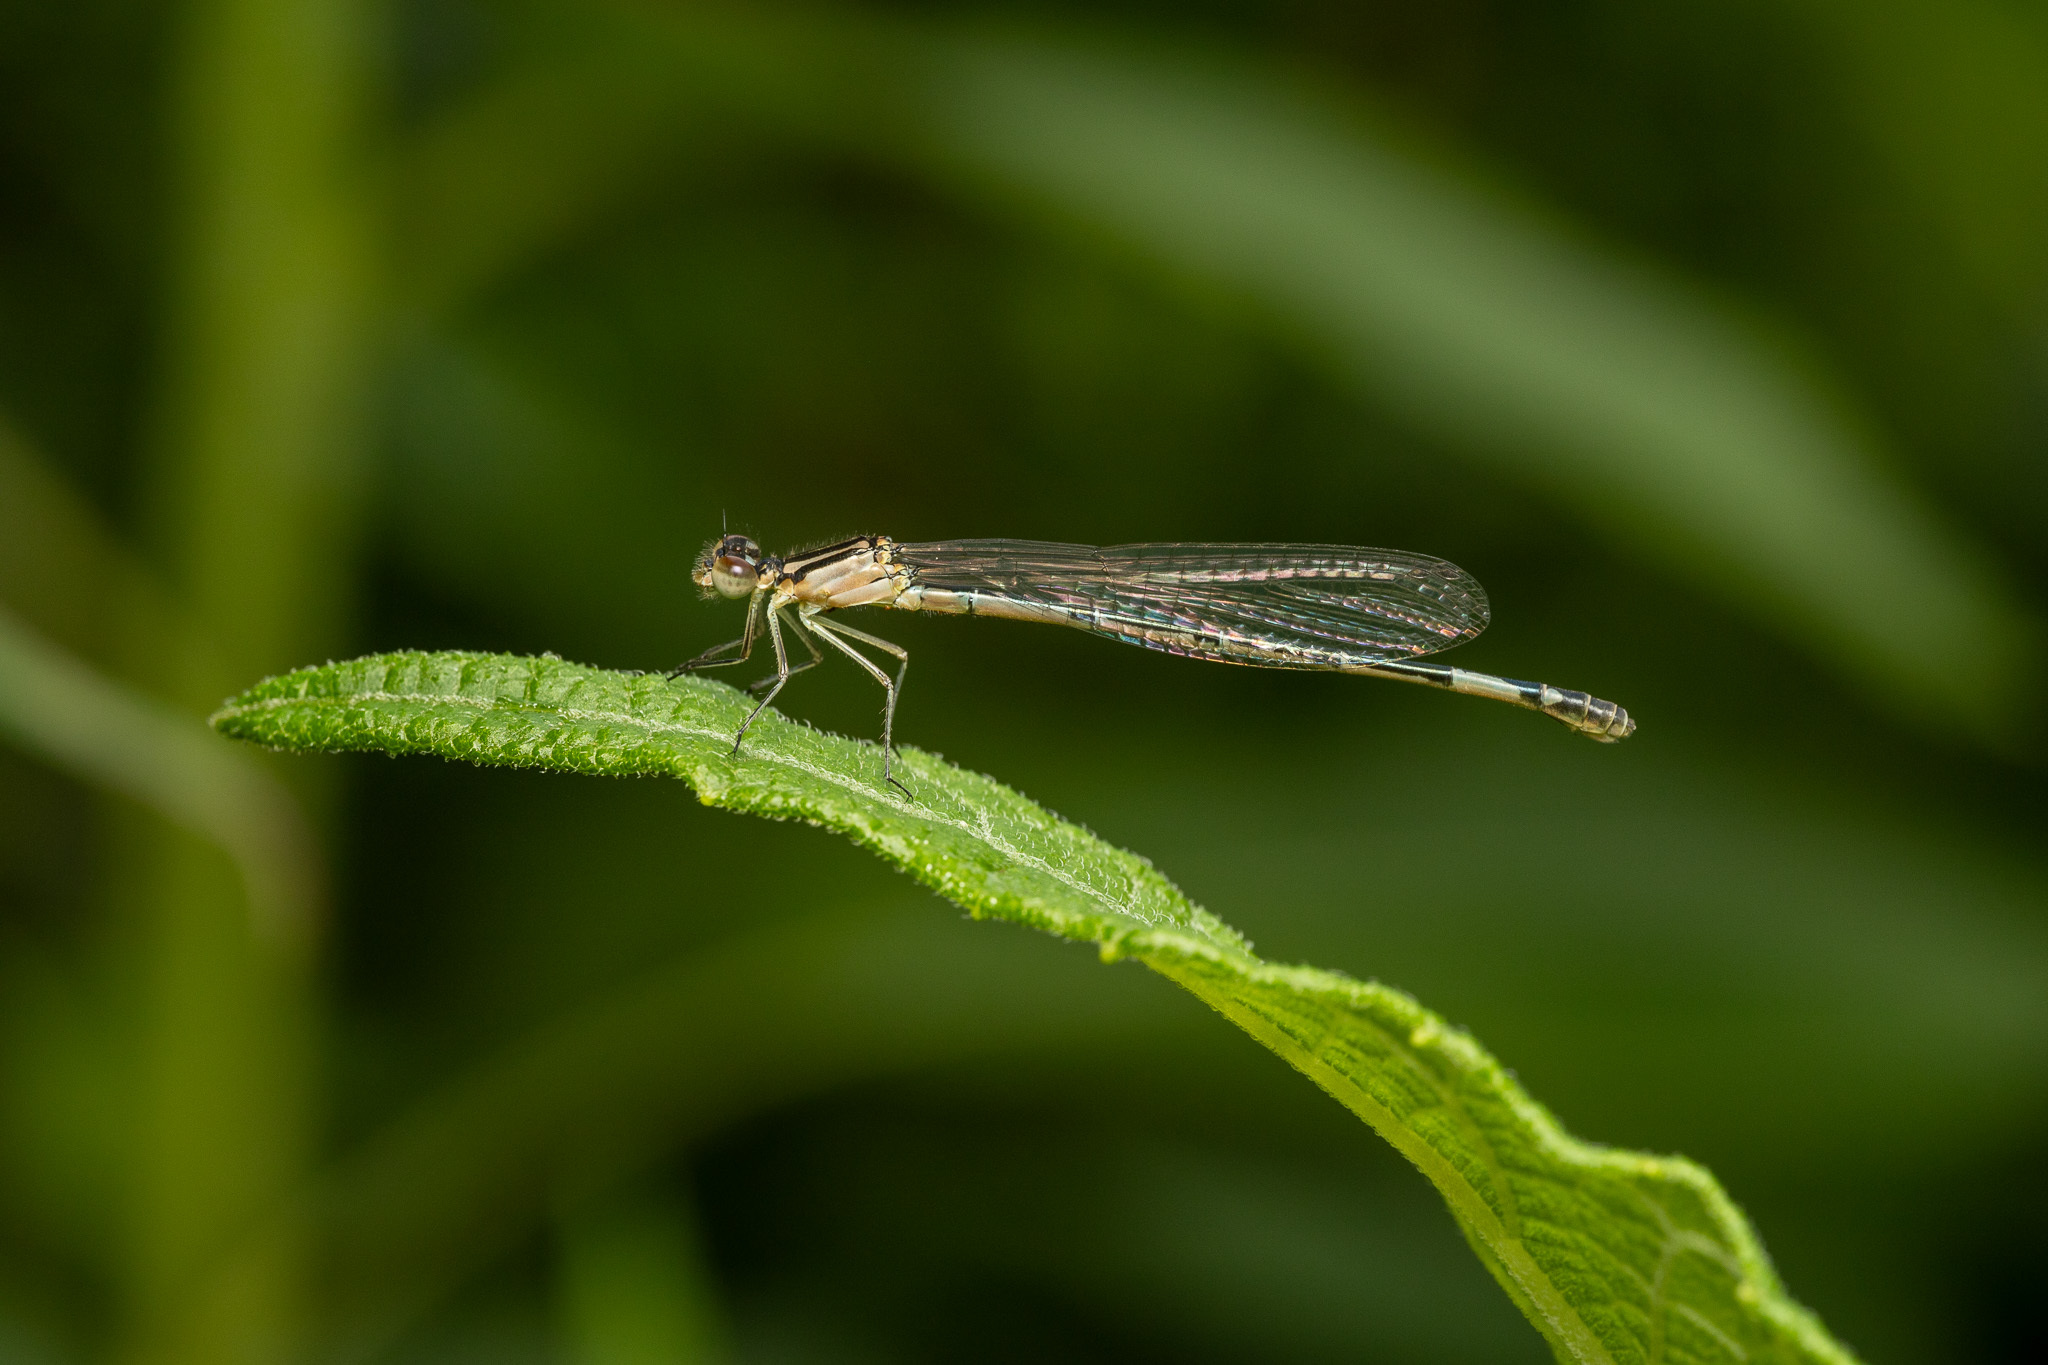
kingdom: Animalia
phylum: Arthropoda
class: Insecta
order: Odonata
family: Coenagrionidae
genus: Enallagma
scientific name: Enallagma aspersum
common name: Azure bluet
